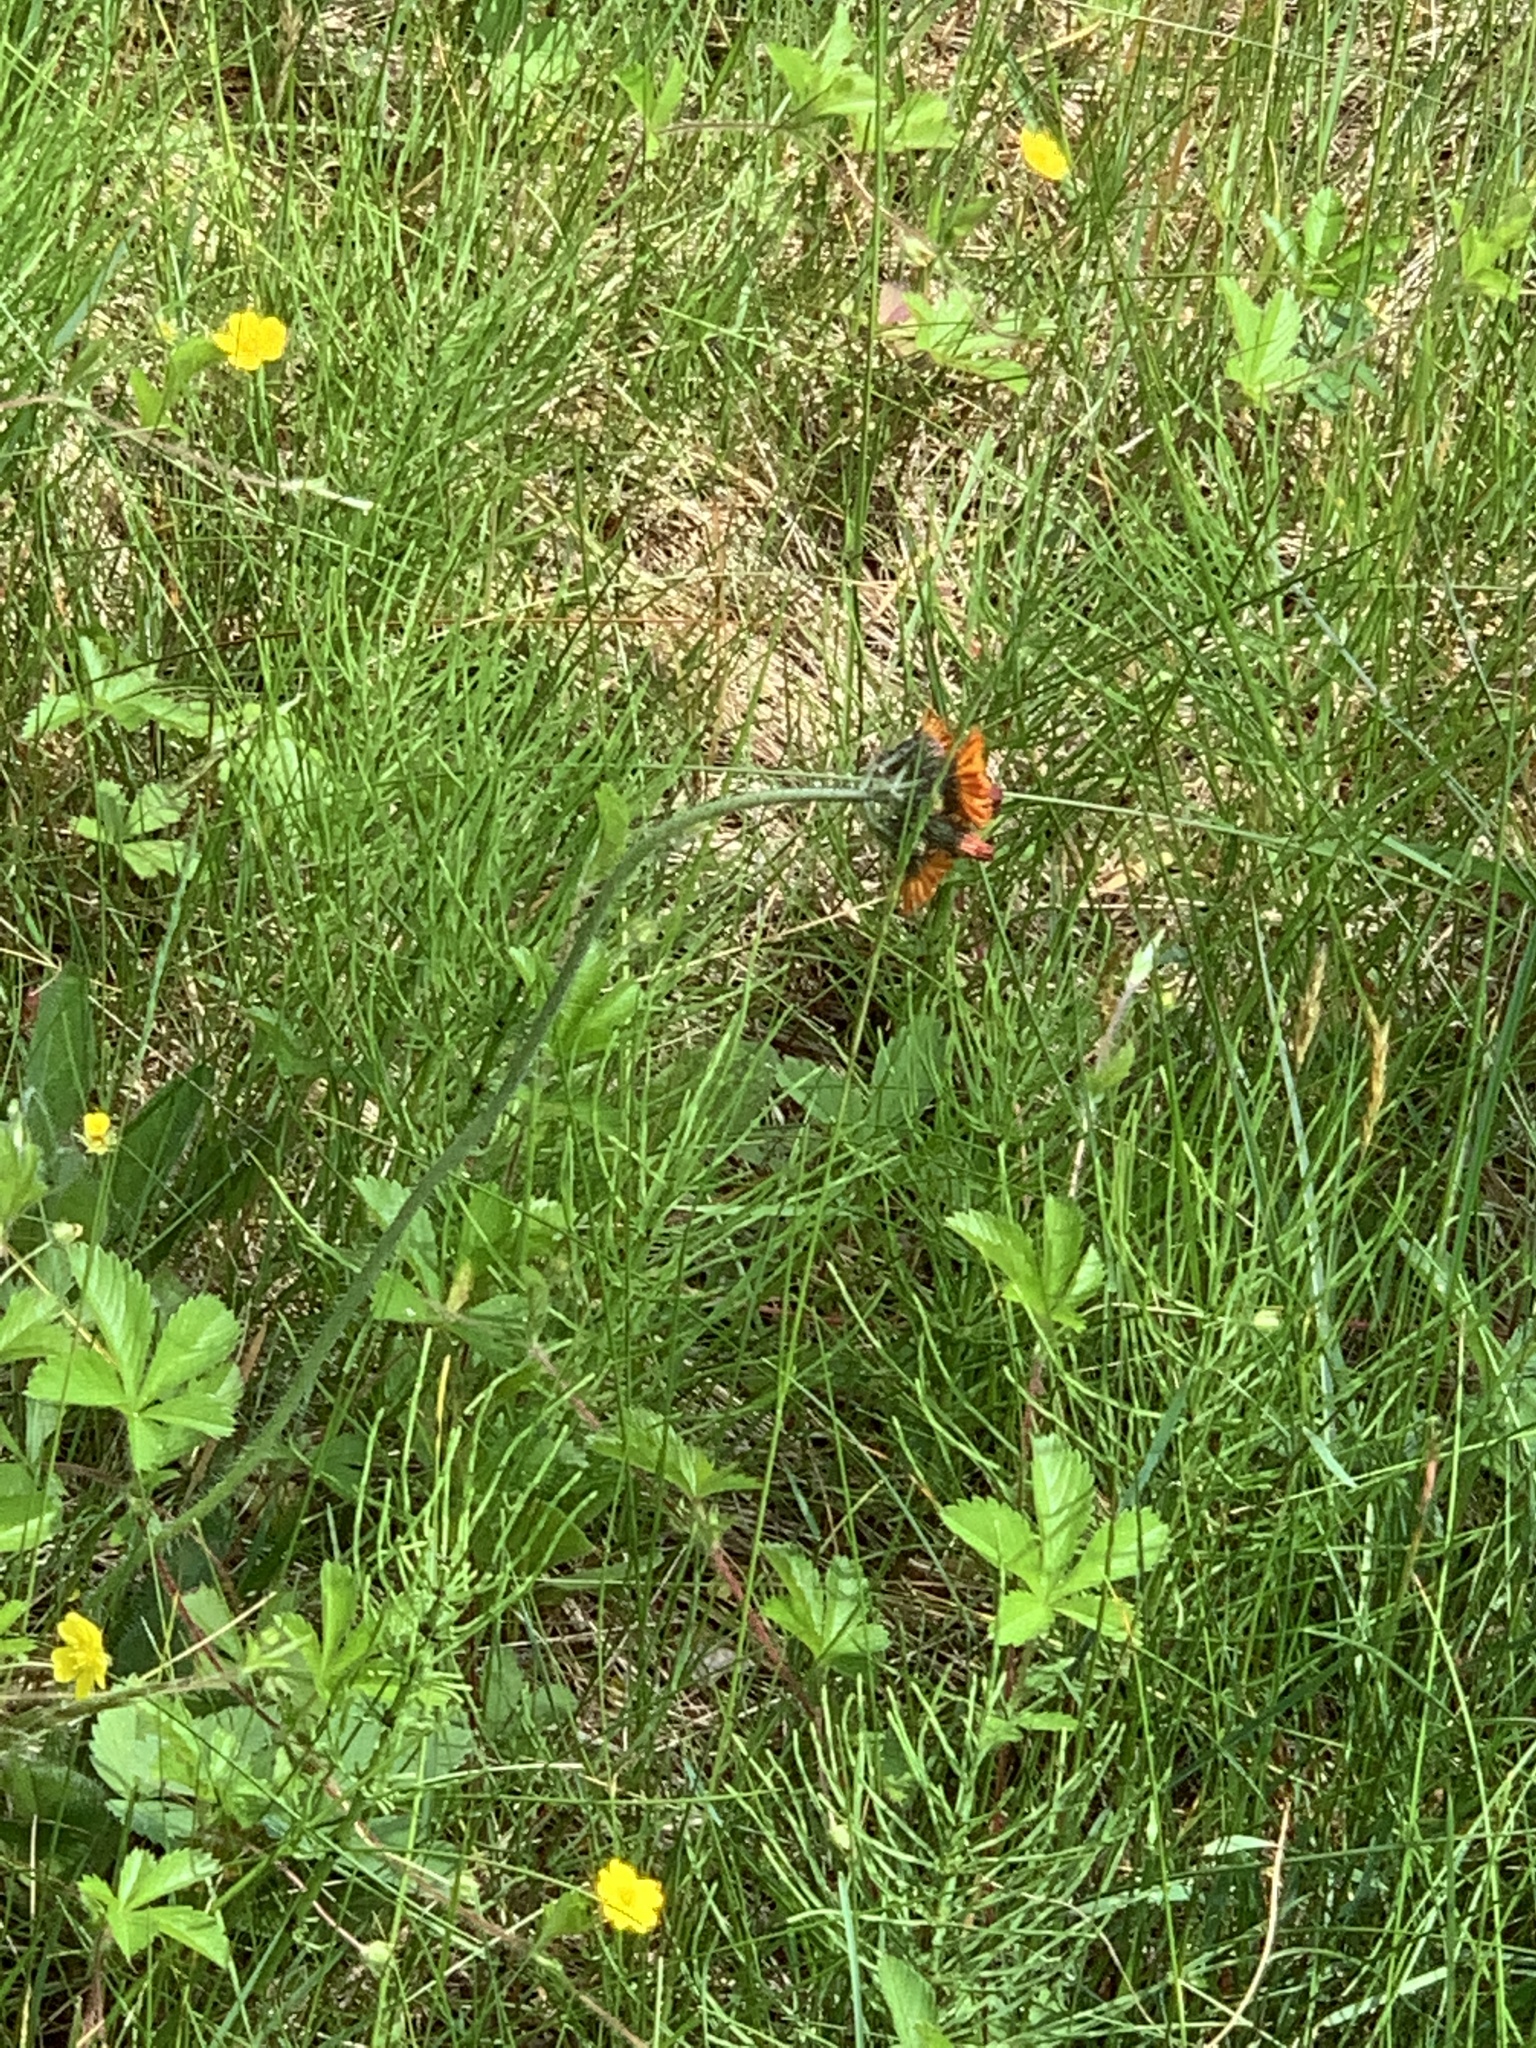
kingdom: Plantae
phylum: Tracheophyta
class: Magnoliopsida
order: Asterales
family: Asteraceae
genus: Pilosella
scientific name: Pilosella aurantiaca
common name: Fox-and-cubs
